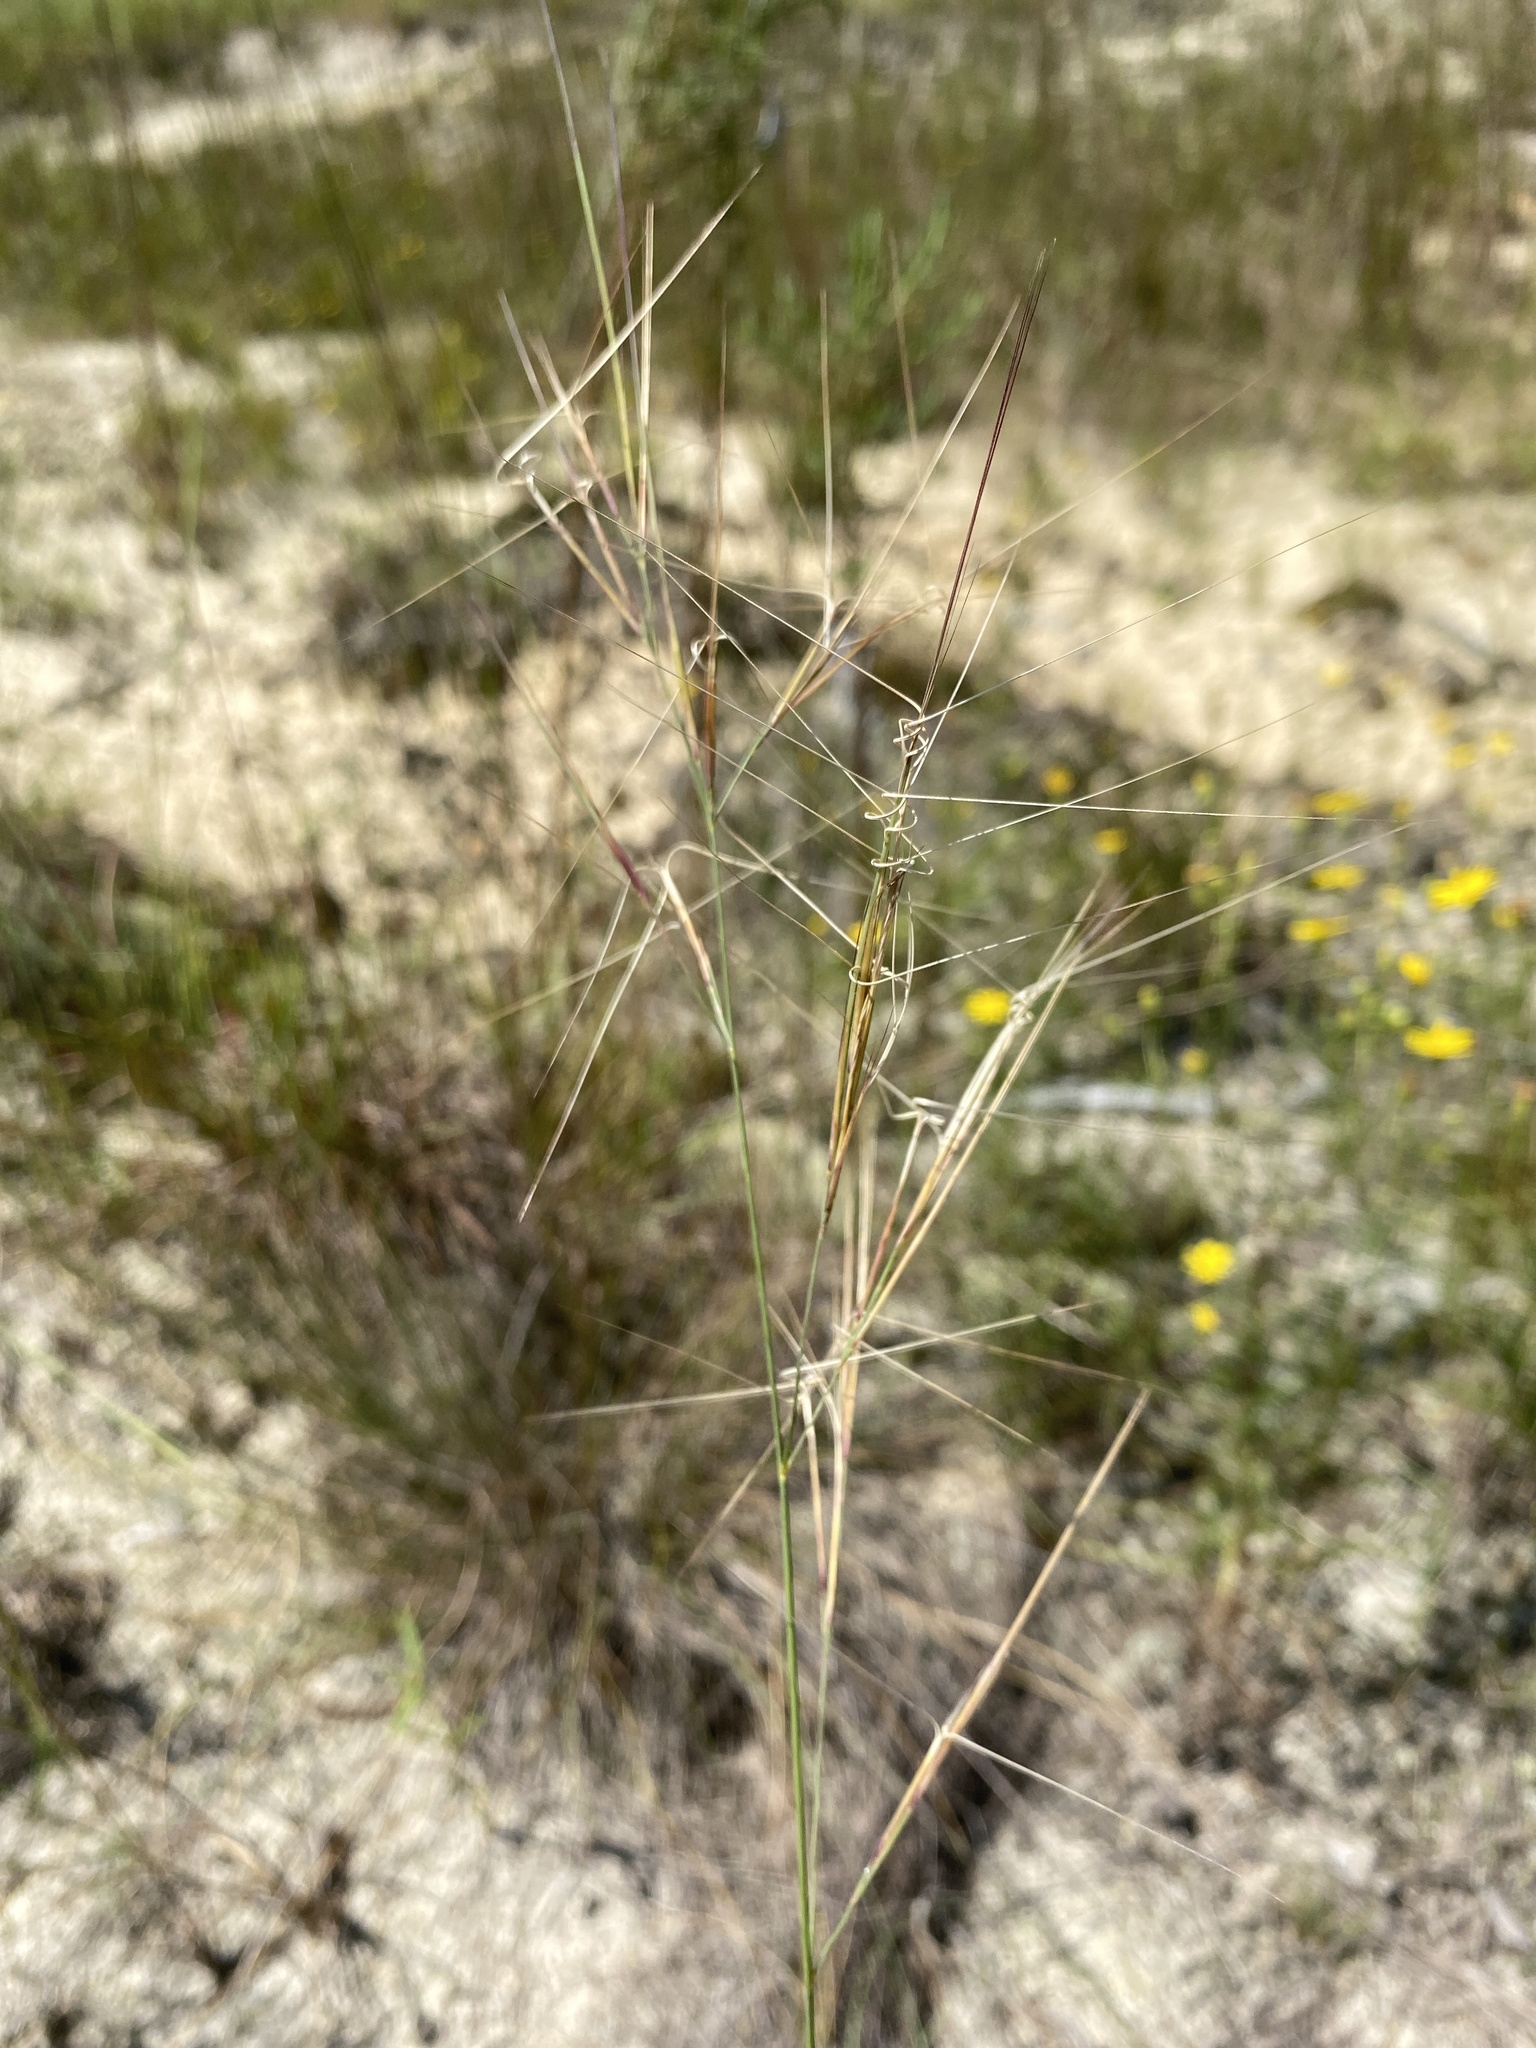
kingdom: Plantae
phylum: Tracheophyta
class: Liliopsida
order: Poales
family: Poaceae
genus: Aristida
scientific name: Aristida tuberculosa
